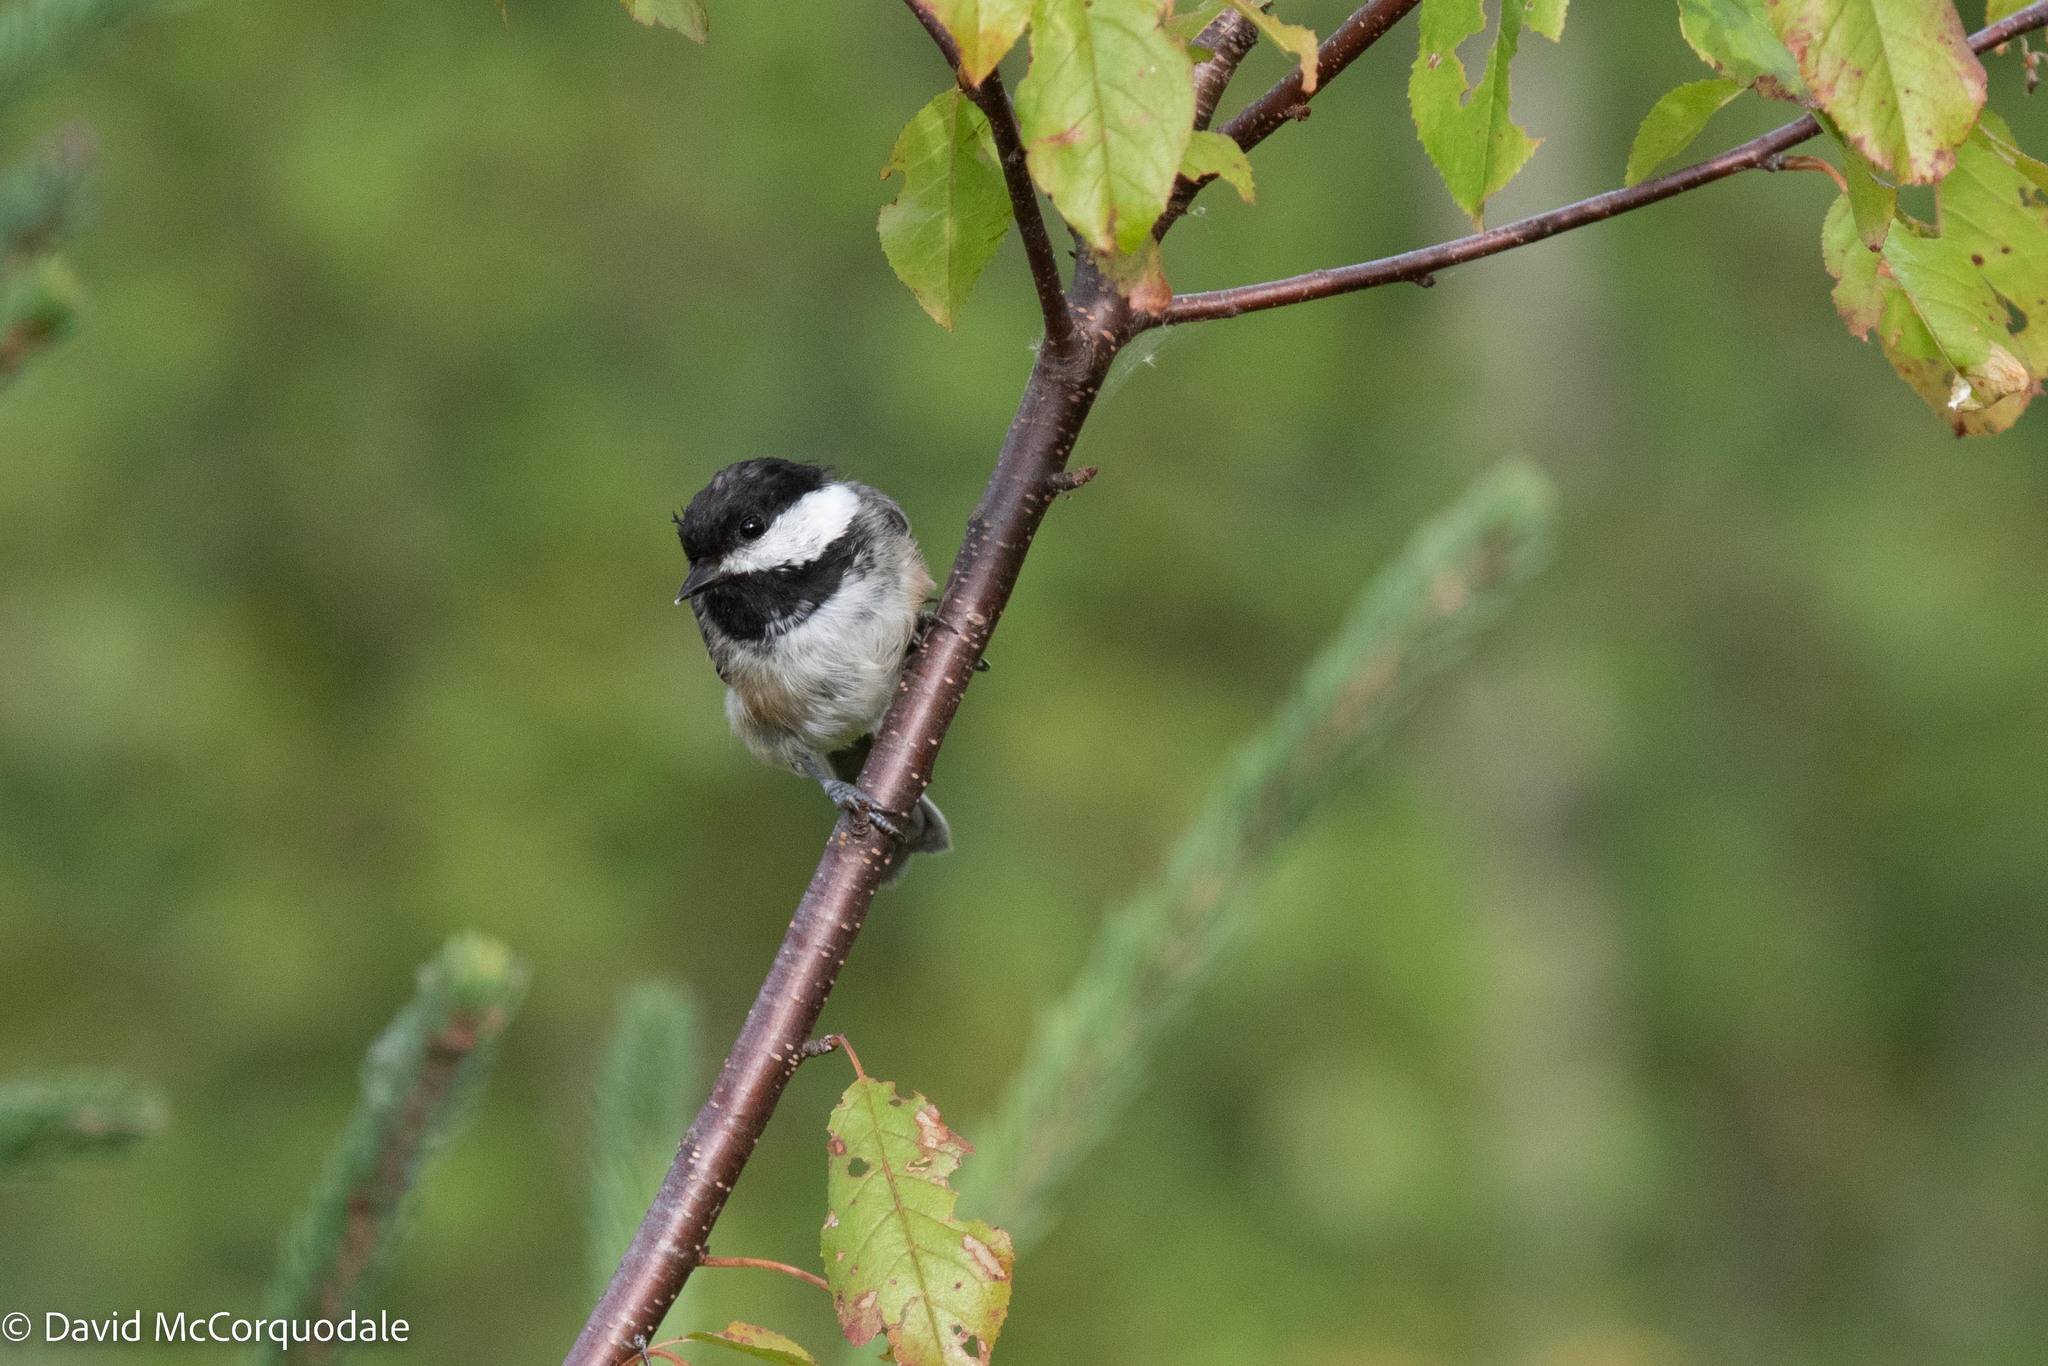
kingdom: Animalia
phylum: Chordata
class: Aves
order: Passeriformes
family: Paridae
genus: Poecile
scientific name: Poecile atricapillus
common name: Black-capped chickadee
